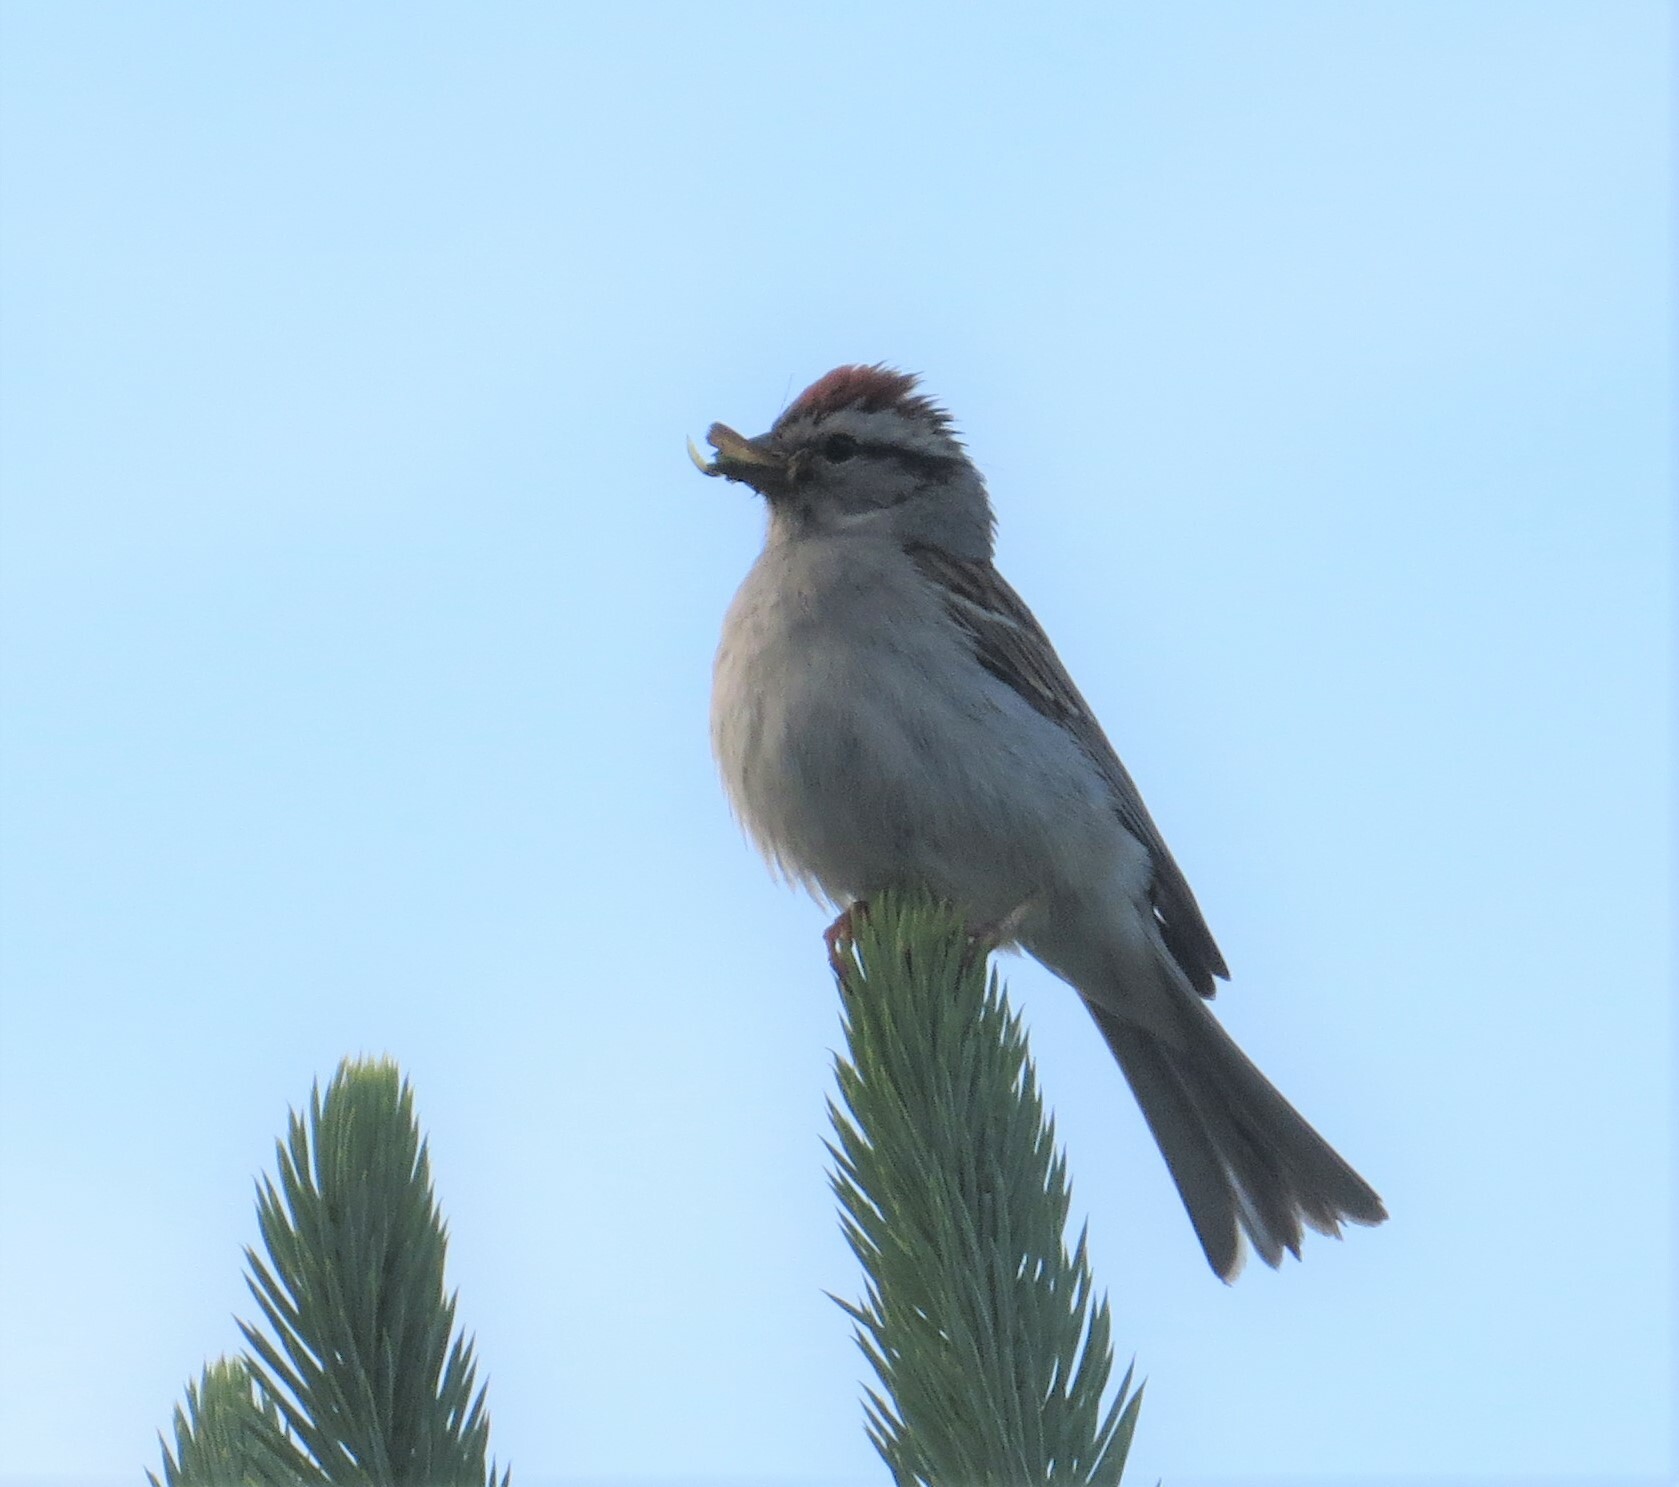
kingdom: Animalia
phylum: Chordata
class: Aves
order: Passeriformes
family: Passerellidae
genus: Spizella
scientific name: Spizella passerina
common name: Chipping sparrow
